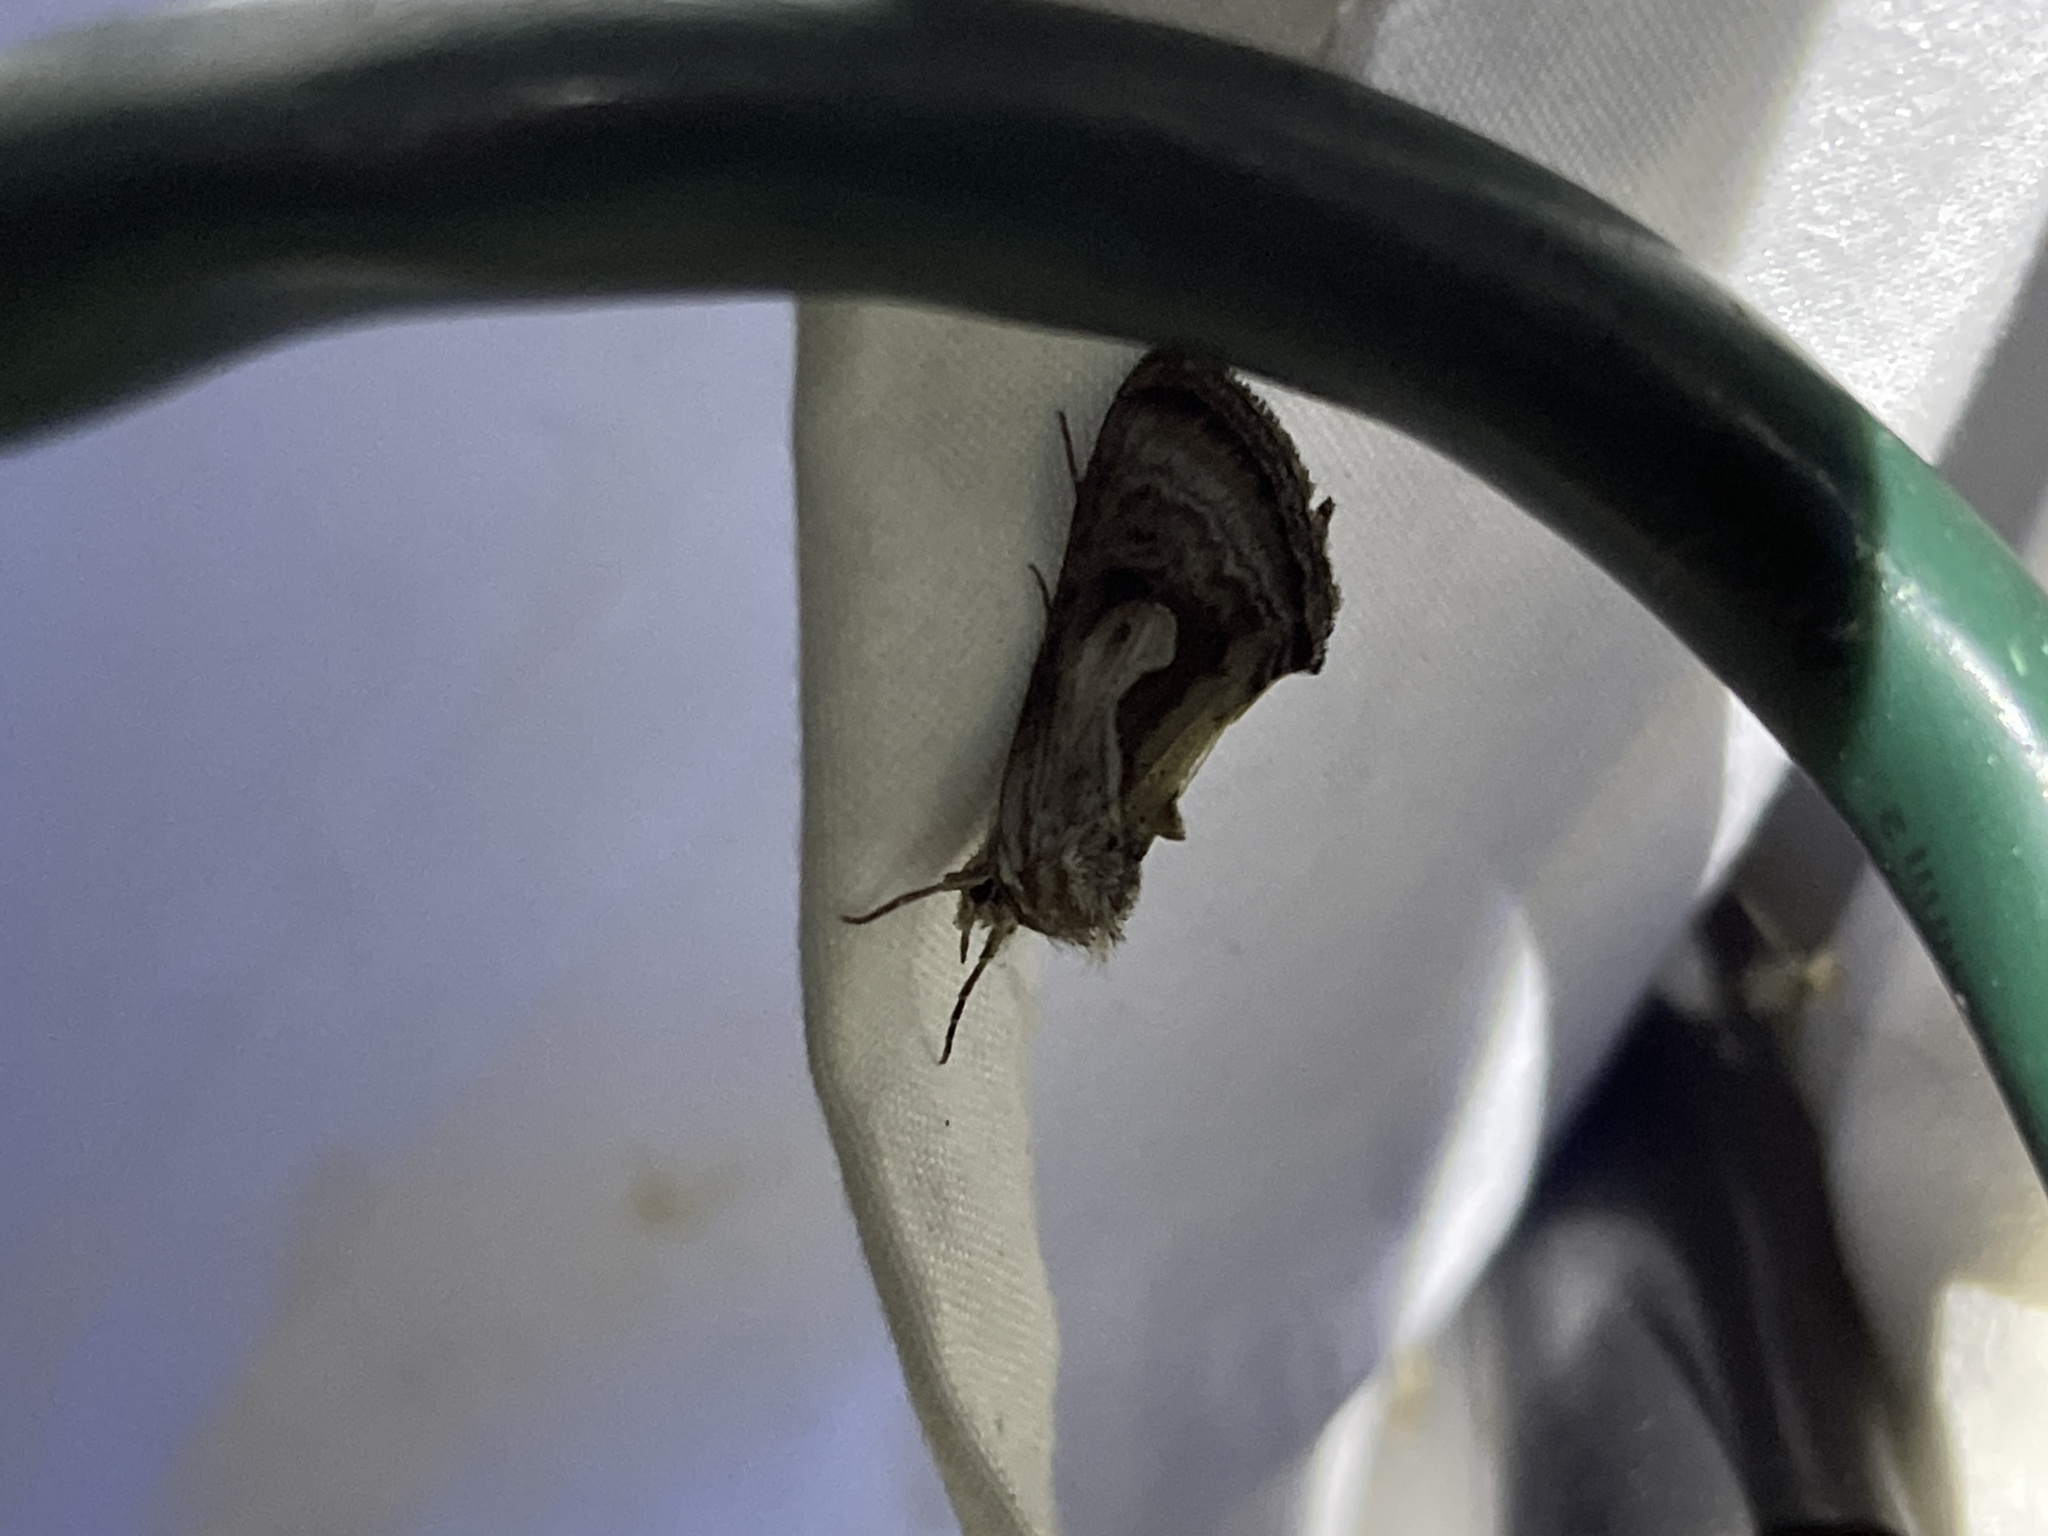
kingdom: Animalia
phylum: Arthropoda
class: Insecta
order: Lepidoptera
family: Noctuidae
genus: Chrysanympha
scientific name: Chrysanympha formosa
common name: Formosa looper moth
